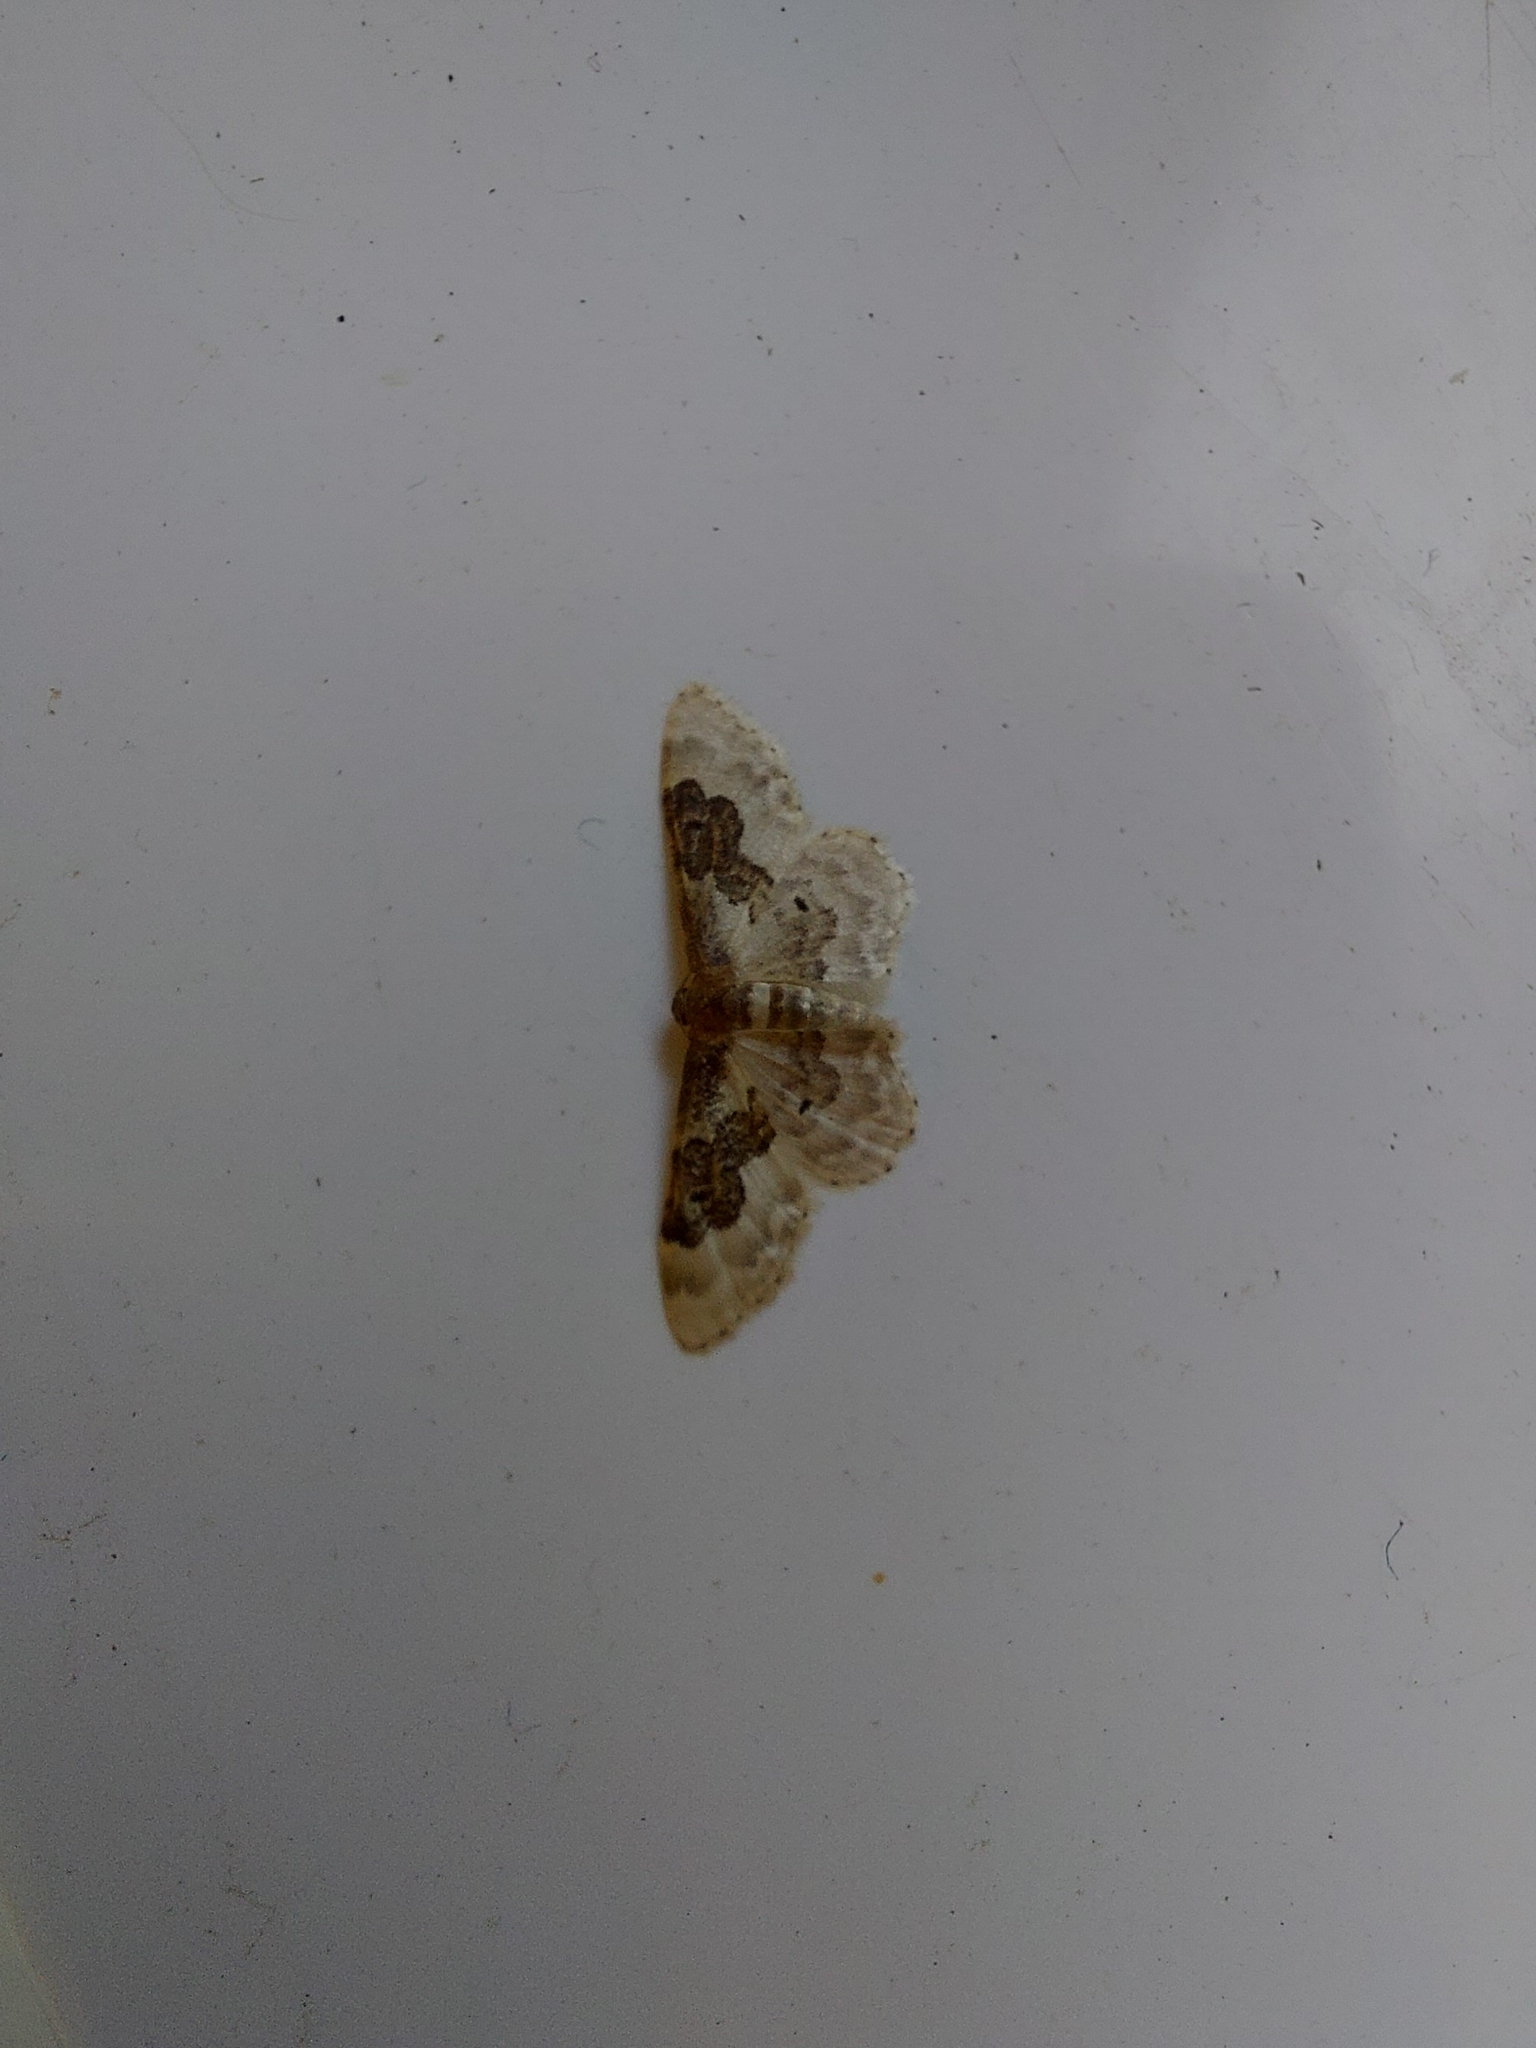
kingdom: Animalia
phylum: Arthropoda
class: Insecta
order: Lepidoptera
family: Geometridae
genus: Idaea
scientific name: Idaea rusticata
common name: Least carpet
